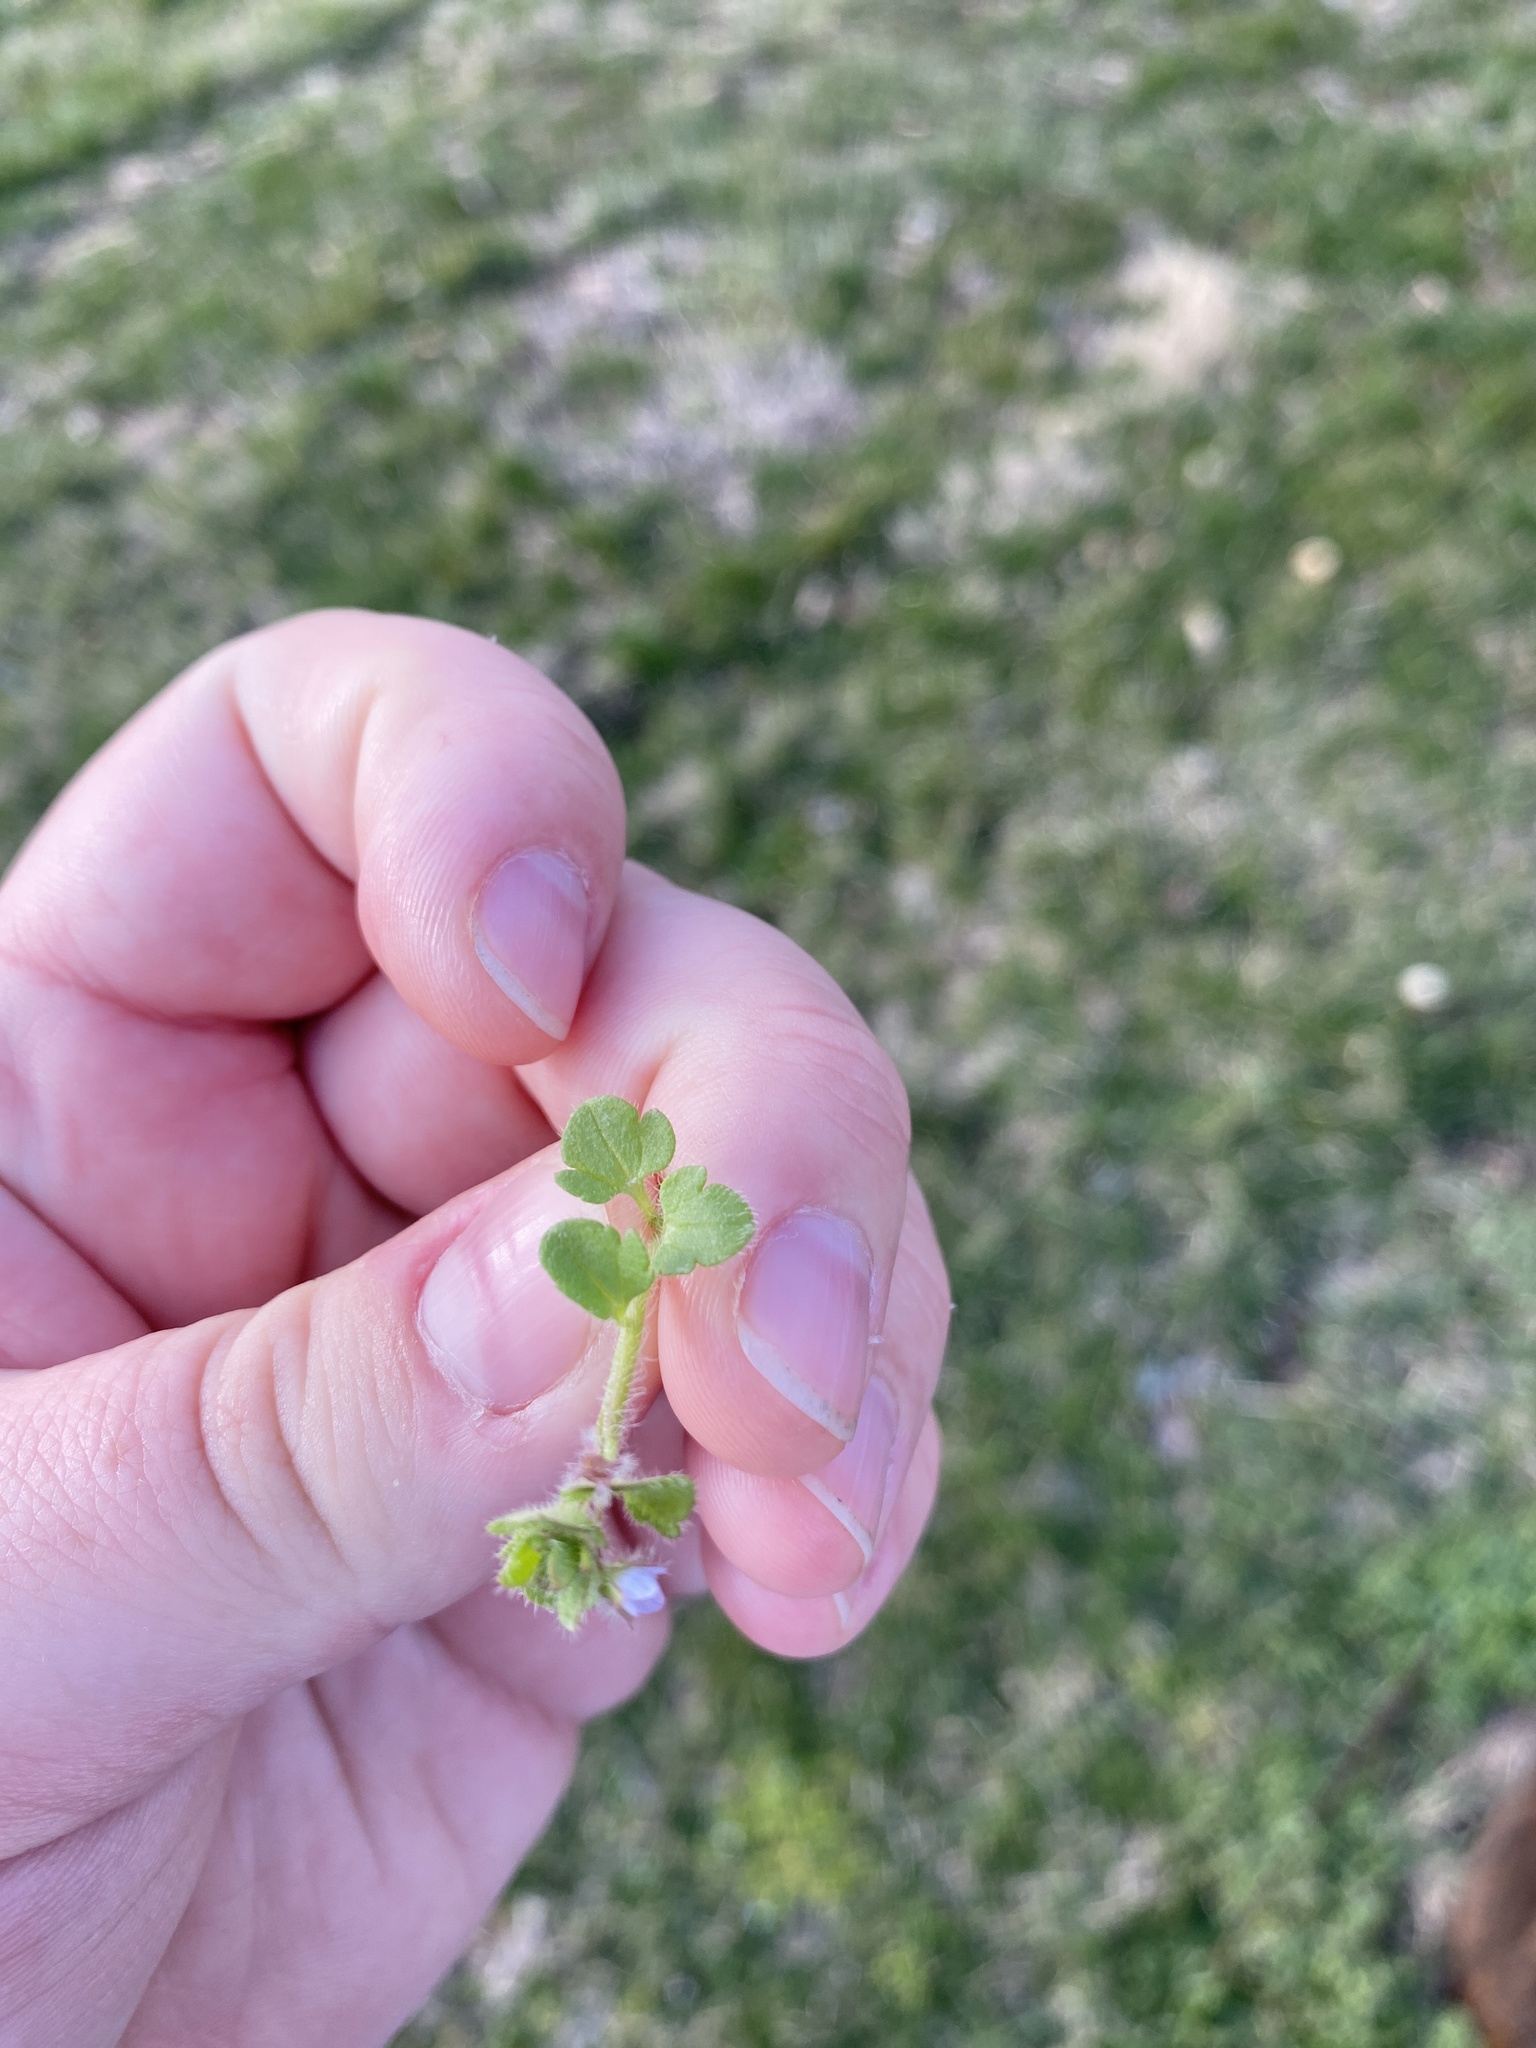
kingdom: Plantae
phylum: Tracheophyta
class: Magnoliopsida
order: Lamiales
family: Plantaginaceae
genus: Veronica
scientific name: Veronica sublobata
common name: False ivy-leaved speedwell
